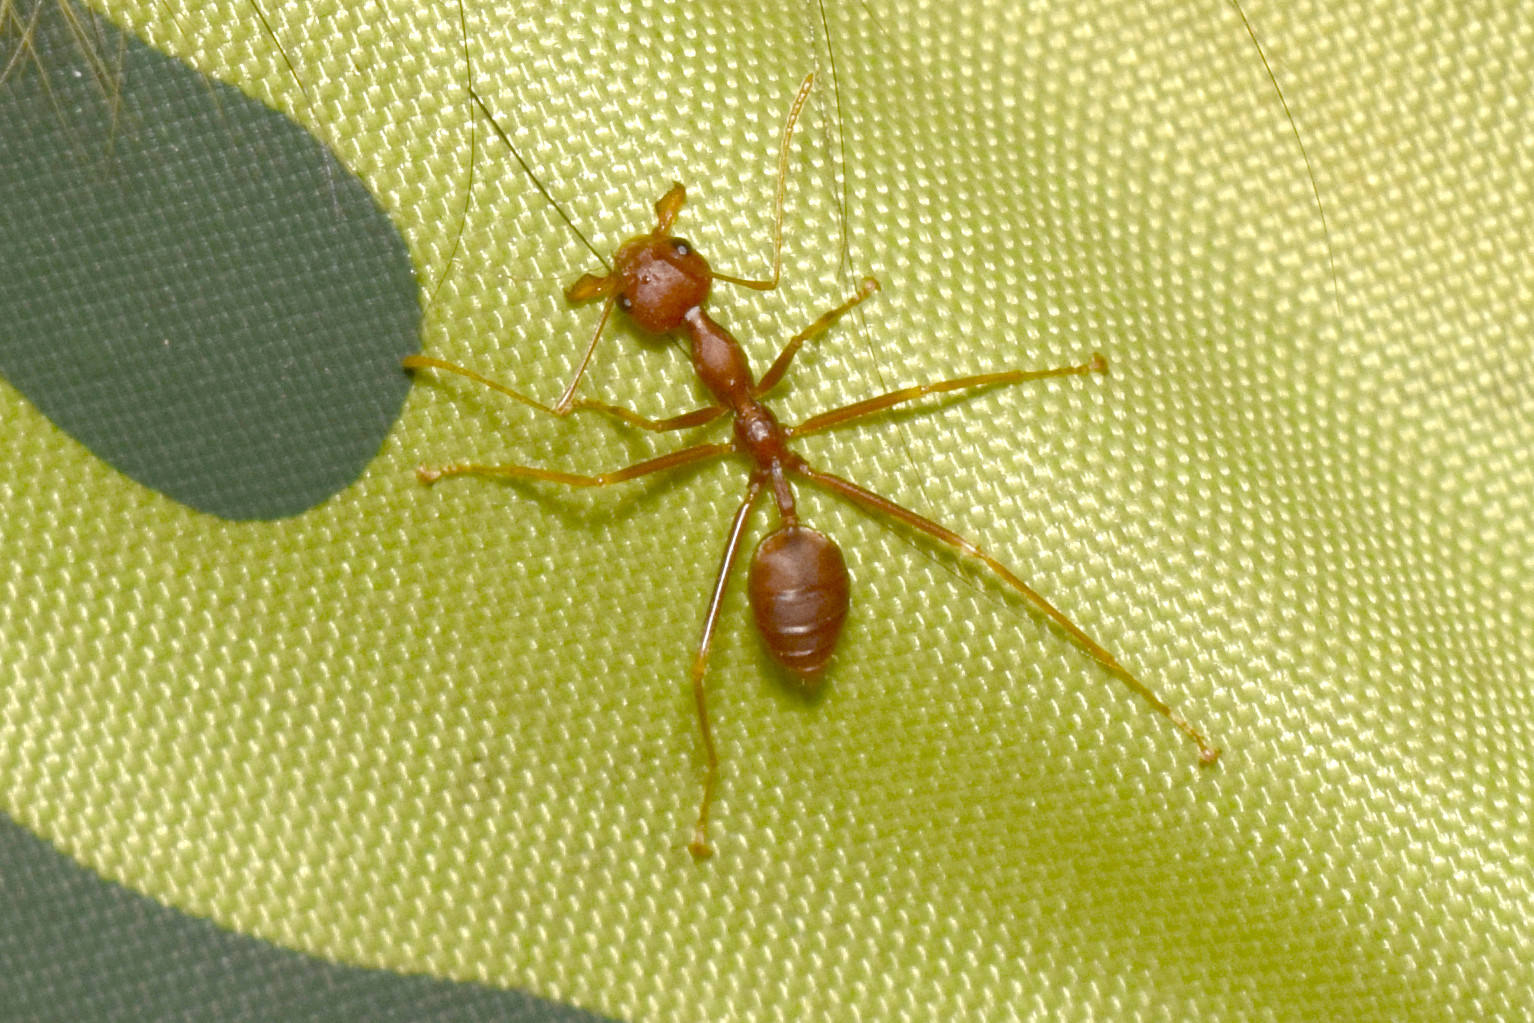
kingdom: Animalia
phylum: Arthropoda
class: Insecta
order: Hymenoptera
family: Formicidae
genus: Oecophylla
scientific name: Oecophylla smaragdina
